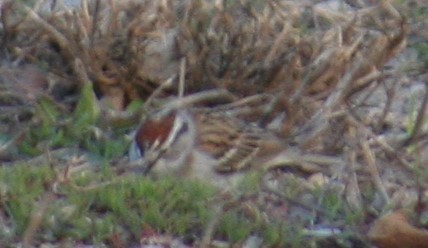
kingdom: Animalia
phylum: Chordata
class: Aves
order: Passeriformes
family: Passerellidae
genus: Spizella
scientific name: Spizella passerina
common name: Chipping sparrow
